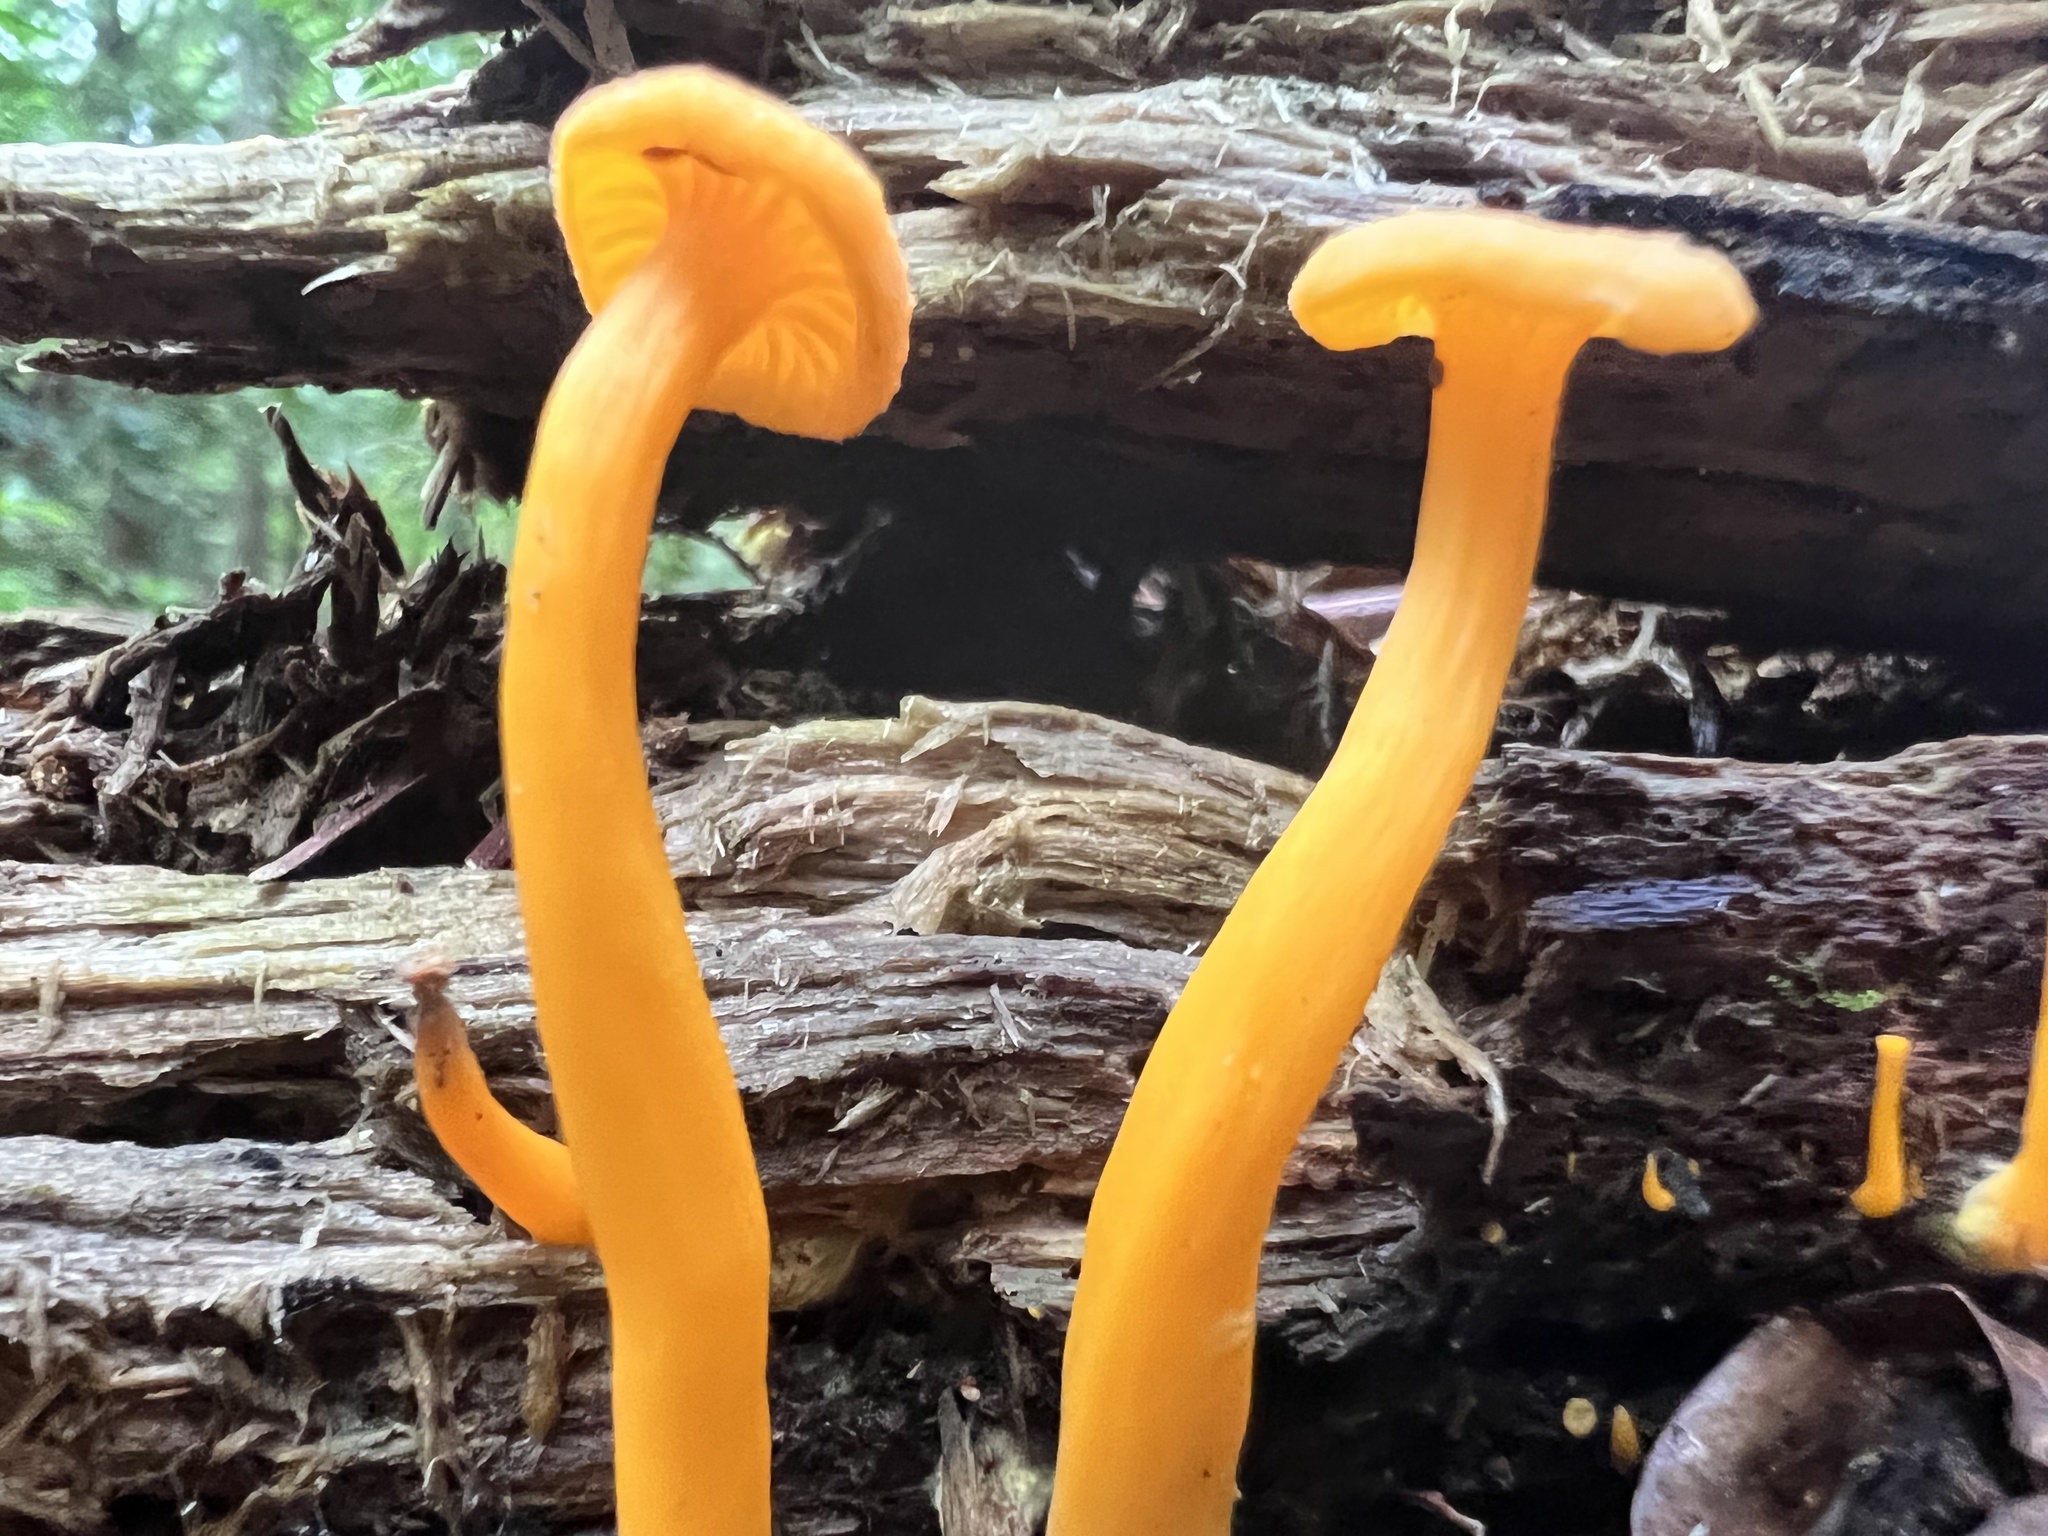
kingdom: Fungi
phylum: Basidiomycota
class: Agaricomycetes
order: Cantharellales
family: Hydnaceae
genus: Cantharellus
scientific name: Cantharellus minor
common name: Small chanterelle
